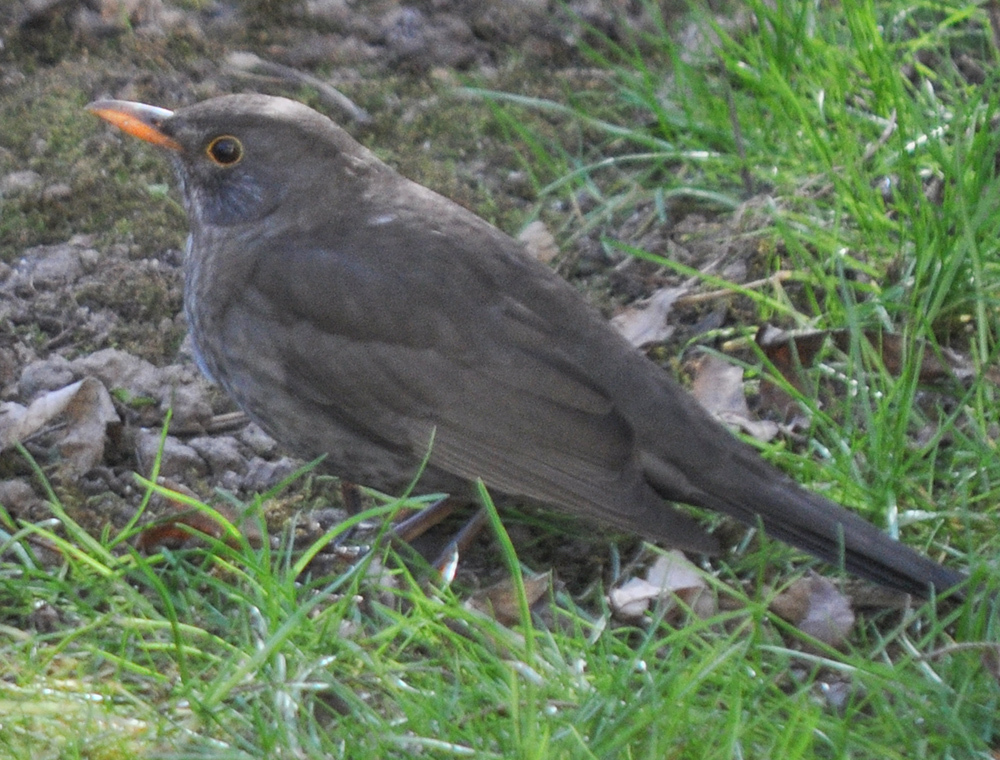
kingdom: Animalia
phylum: Chordata
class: Aves
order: Passeriformes
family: Turdidae
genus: Turdus
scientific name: Turdus merula
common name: Common blackbird
